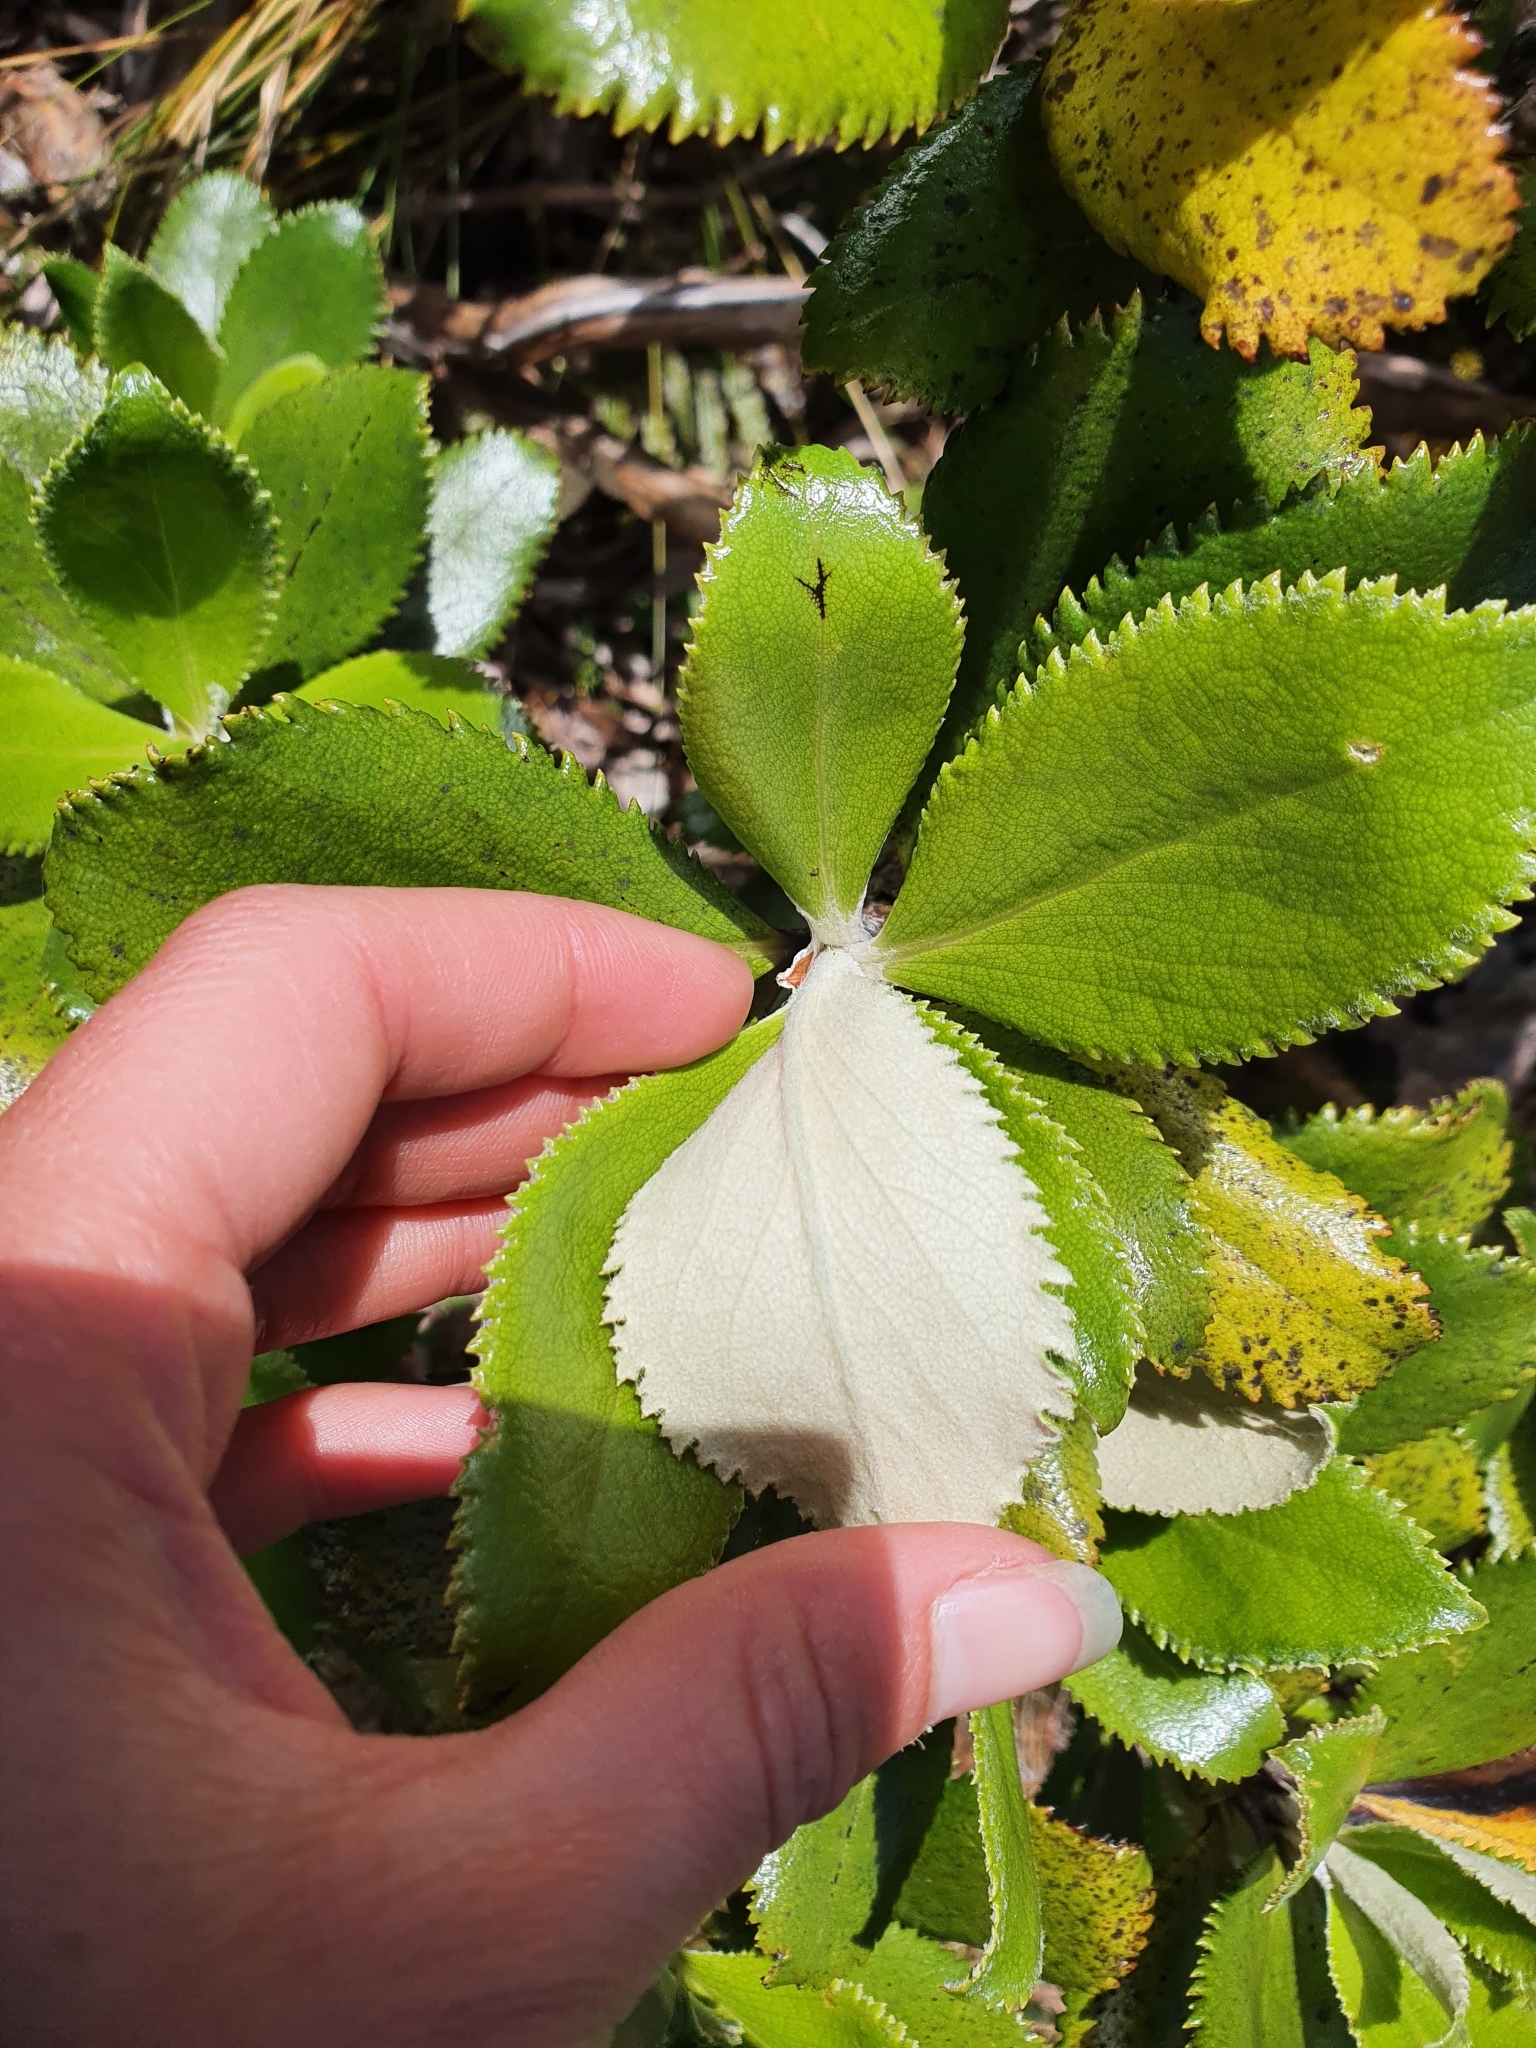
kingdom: Plantae
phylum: Tracheophyta
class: Magnoliopsida
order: Asterales
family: Asteraceae
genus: Macrolearia
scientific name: Macrolearia colensoi
